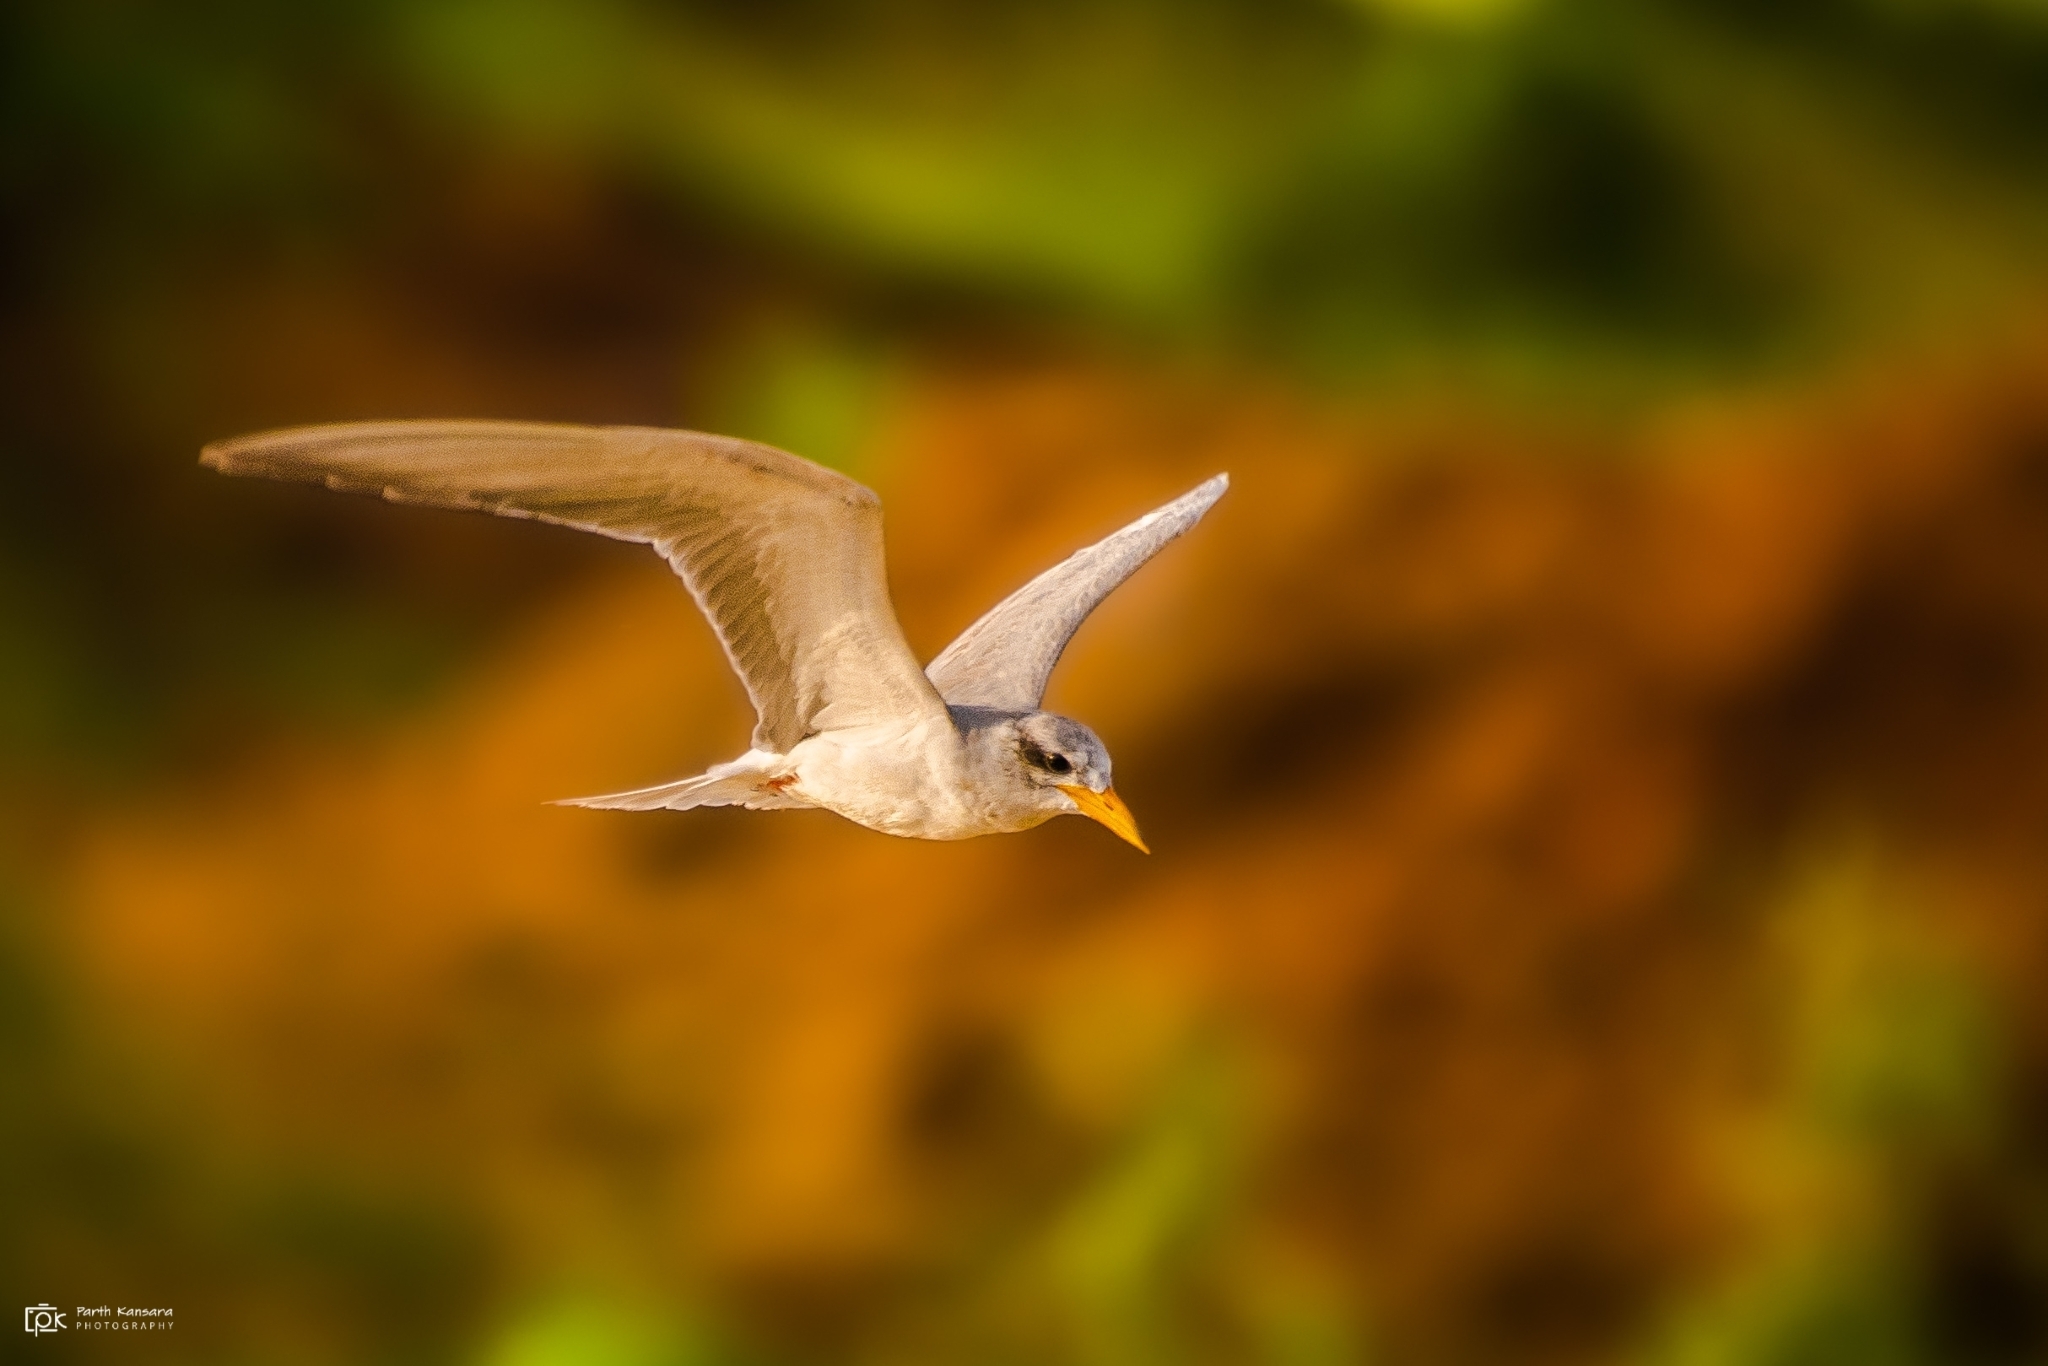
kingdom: Animalia
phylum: Chordata
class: Aves
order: Charadriiformes
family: Laridae
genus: Sterna
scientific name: Sterna aurantia
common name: River tern
